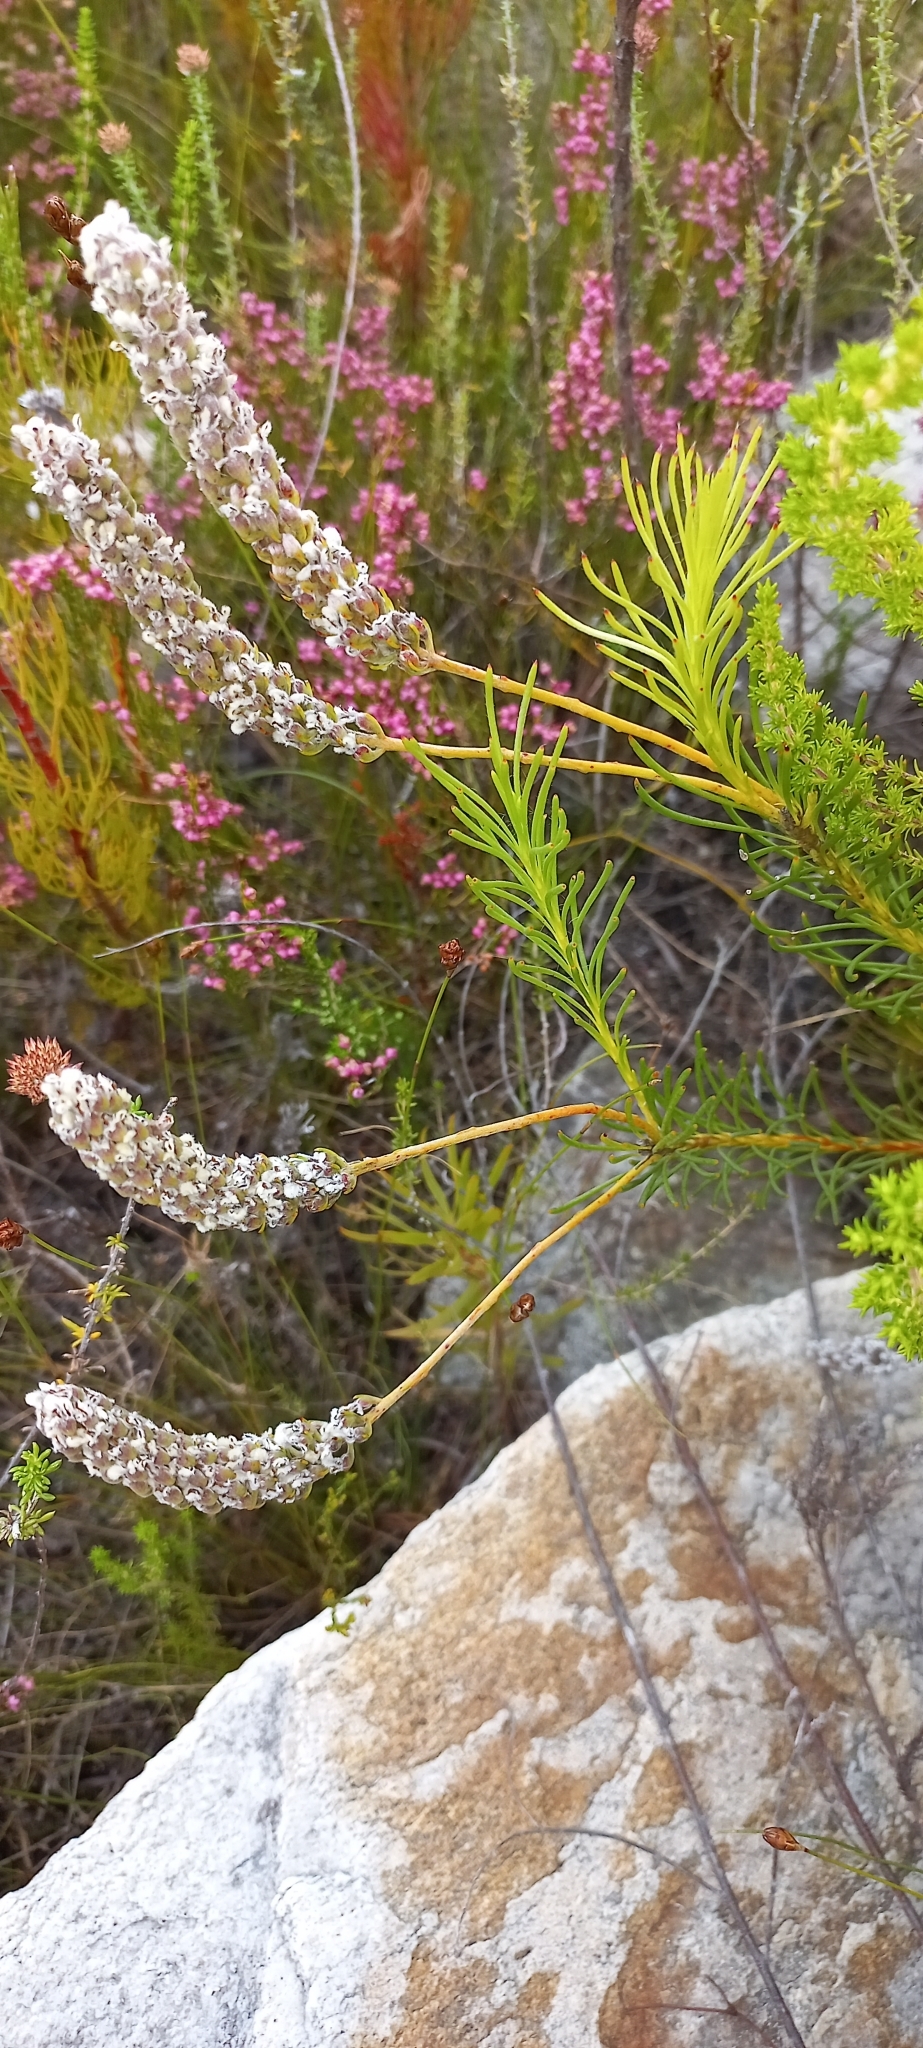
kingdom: Plantae
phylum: Tracheophyta
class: Magnoliopsida
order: Proteales
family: Proteaceae
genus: Spatalla
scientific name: Spatalla curvifolia
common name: White-stalked spoon
